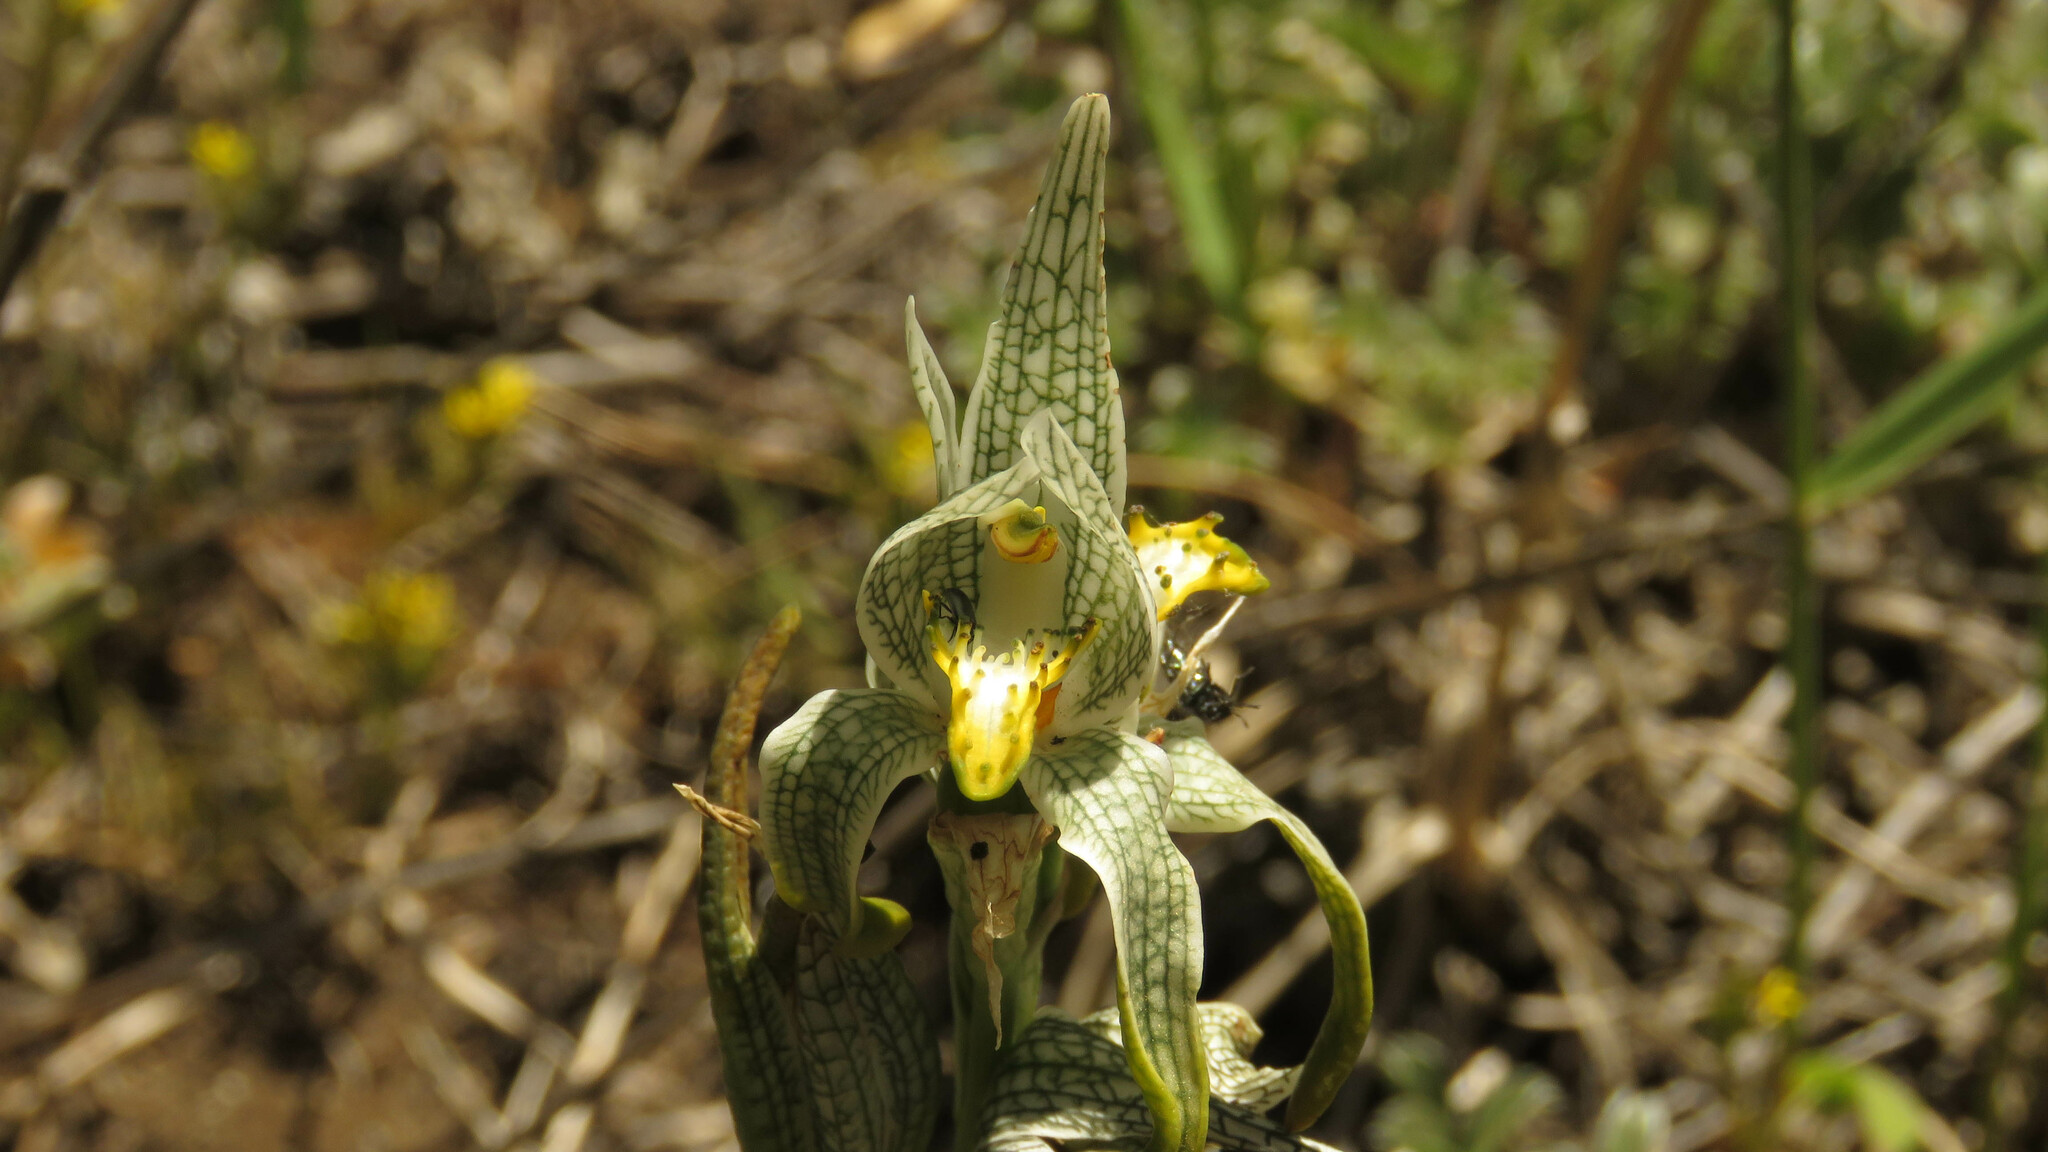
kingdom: Plantae
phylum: Tracheophyta
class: Liliopsida
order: Asparagales
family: Orchidaceae
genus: Chloraea
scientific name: Chloraea magellanica
